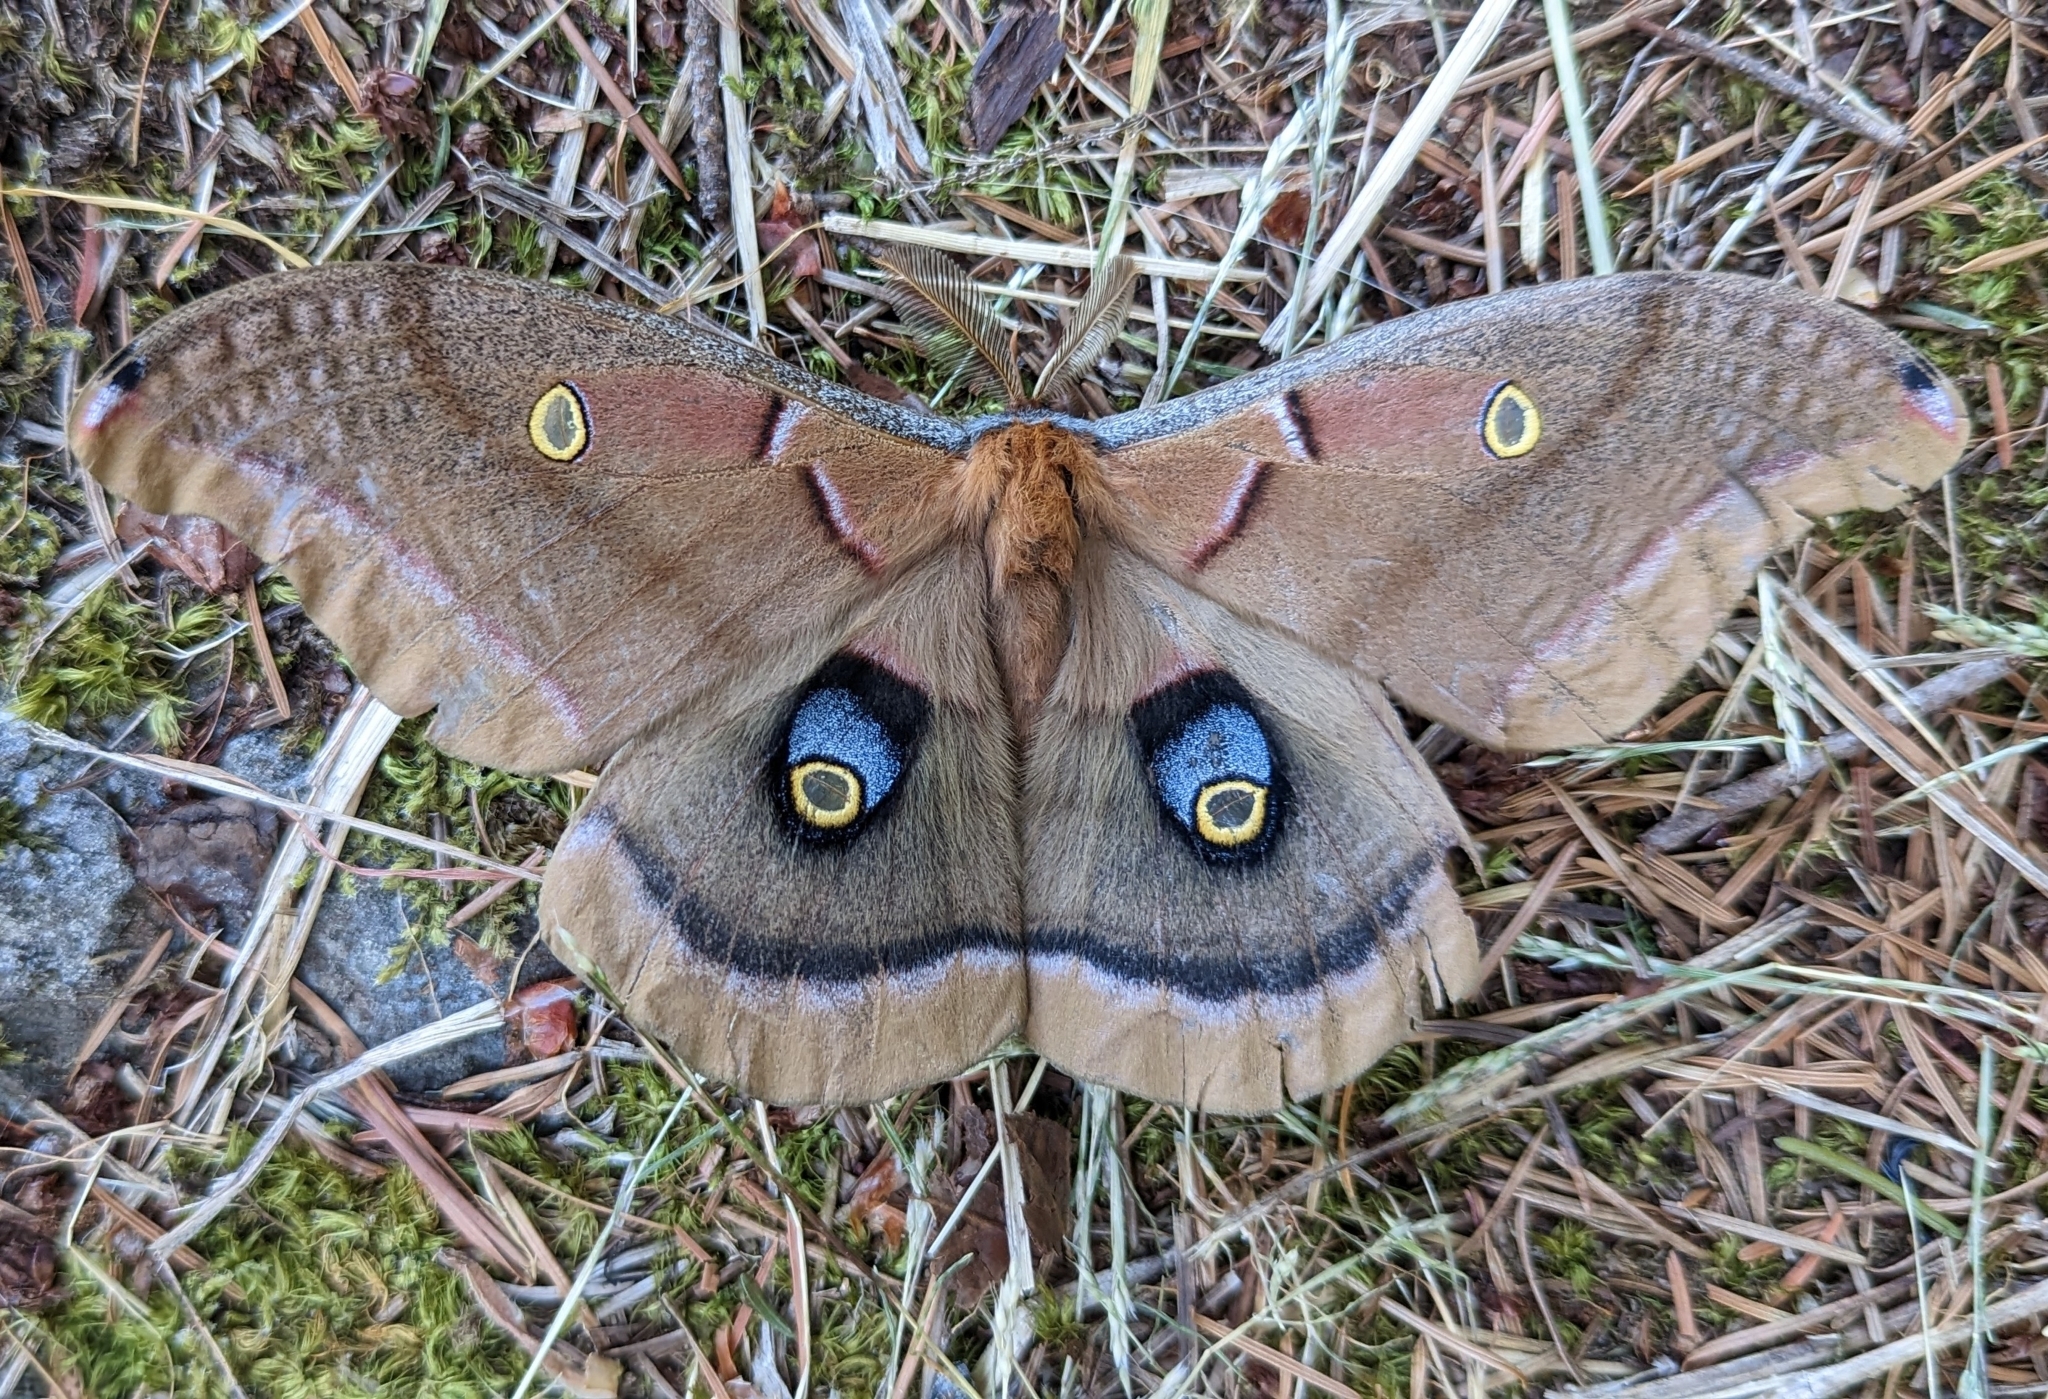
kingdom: Animalia
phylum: Arthropoda
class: Insecta
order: Lepidoptera
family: Saturniidae
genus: Antheraea
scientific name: Antheraea polyphemus
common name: Polyphemus moth
